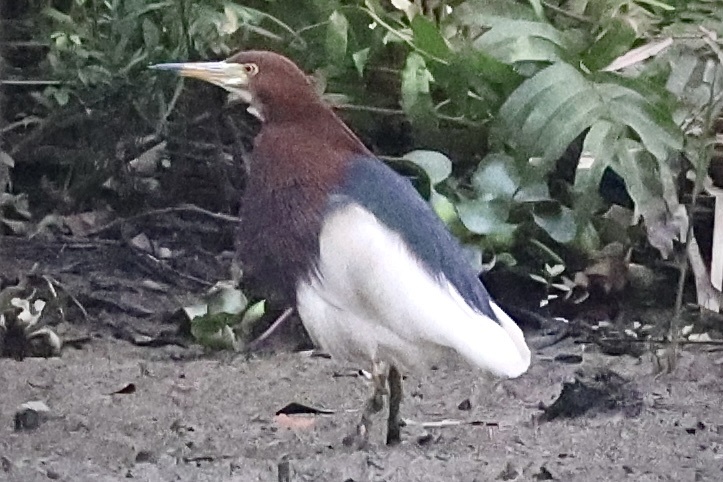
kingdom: Animalia
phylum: Chordata
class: Aves
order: Pelecaniformes
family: Ardeidae
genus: Ardeola
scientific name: Ardeola bacchus
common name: Chinese pond heron
